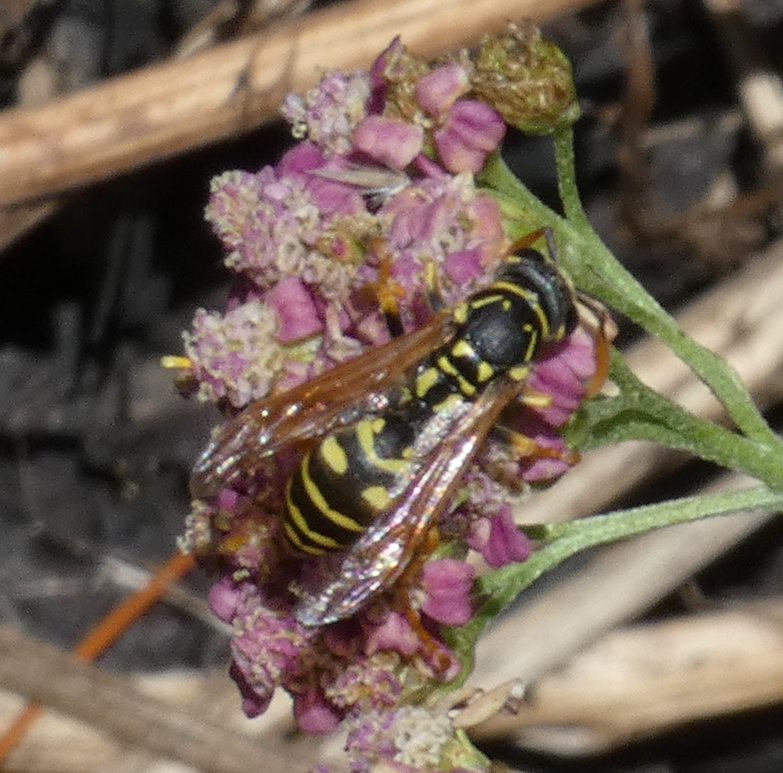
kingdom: Animalia
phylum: Arthropoda
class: Insecta
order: Hymenoptera
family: Eumenidae
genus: Polistes
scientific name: Polistes dominula
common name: Paper wasp
